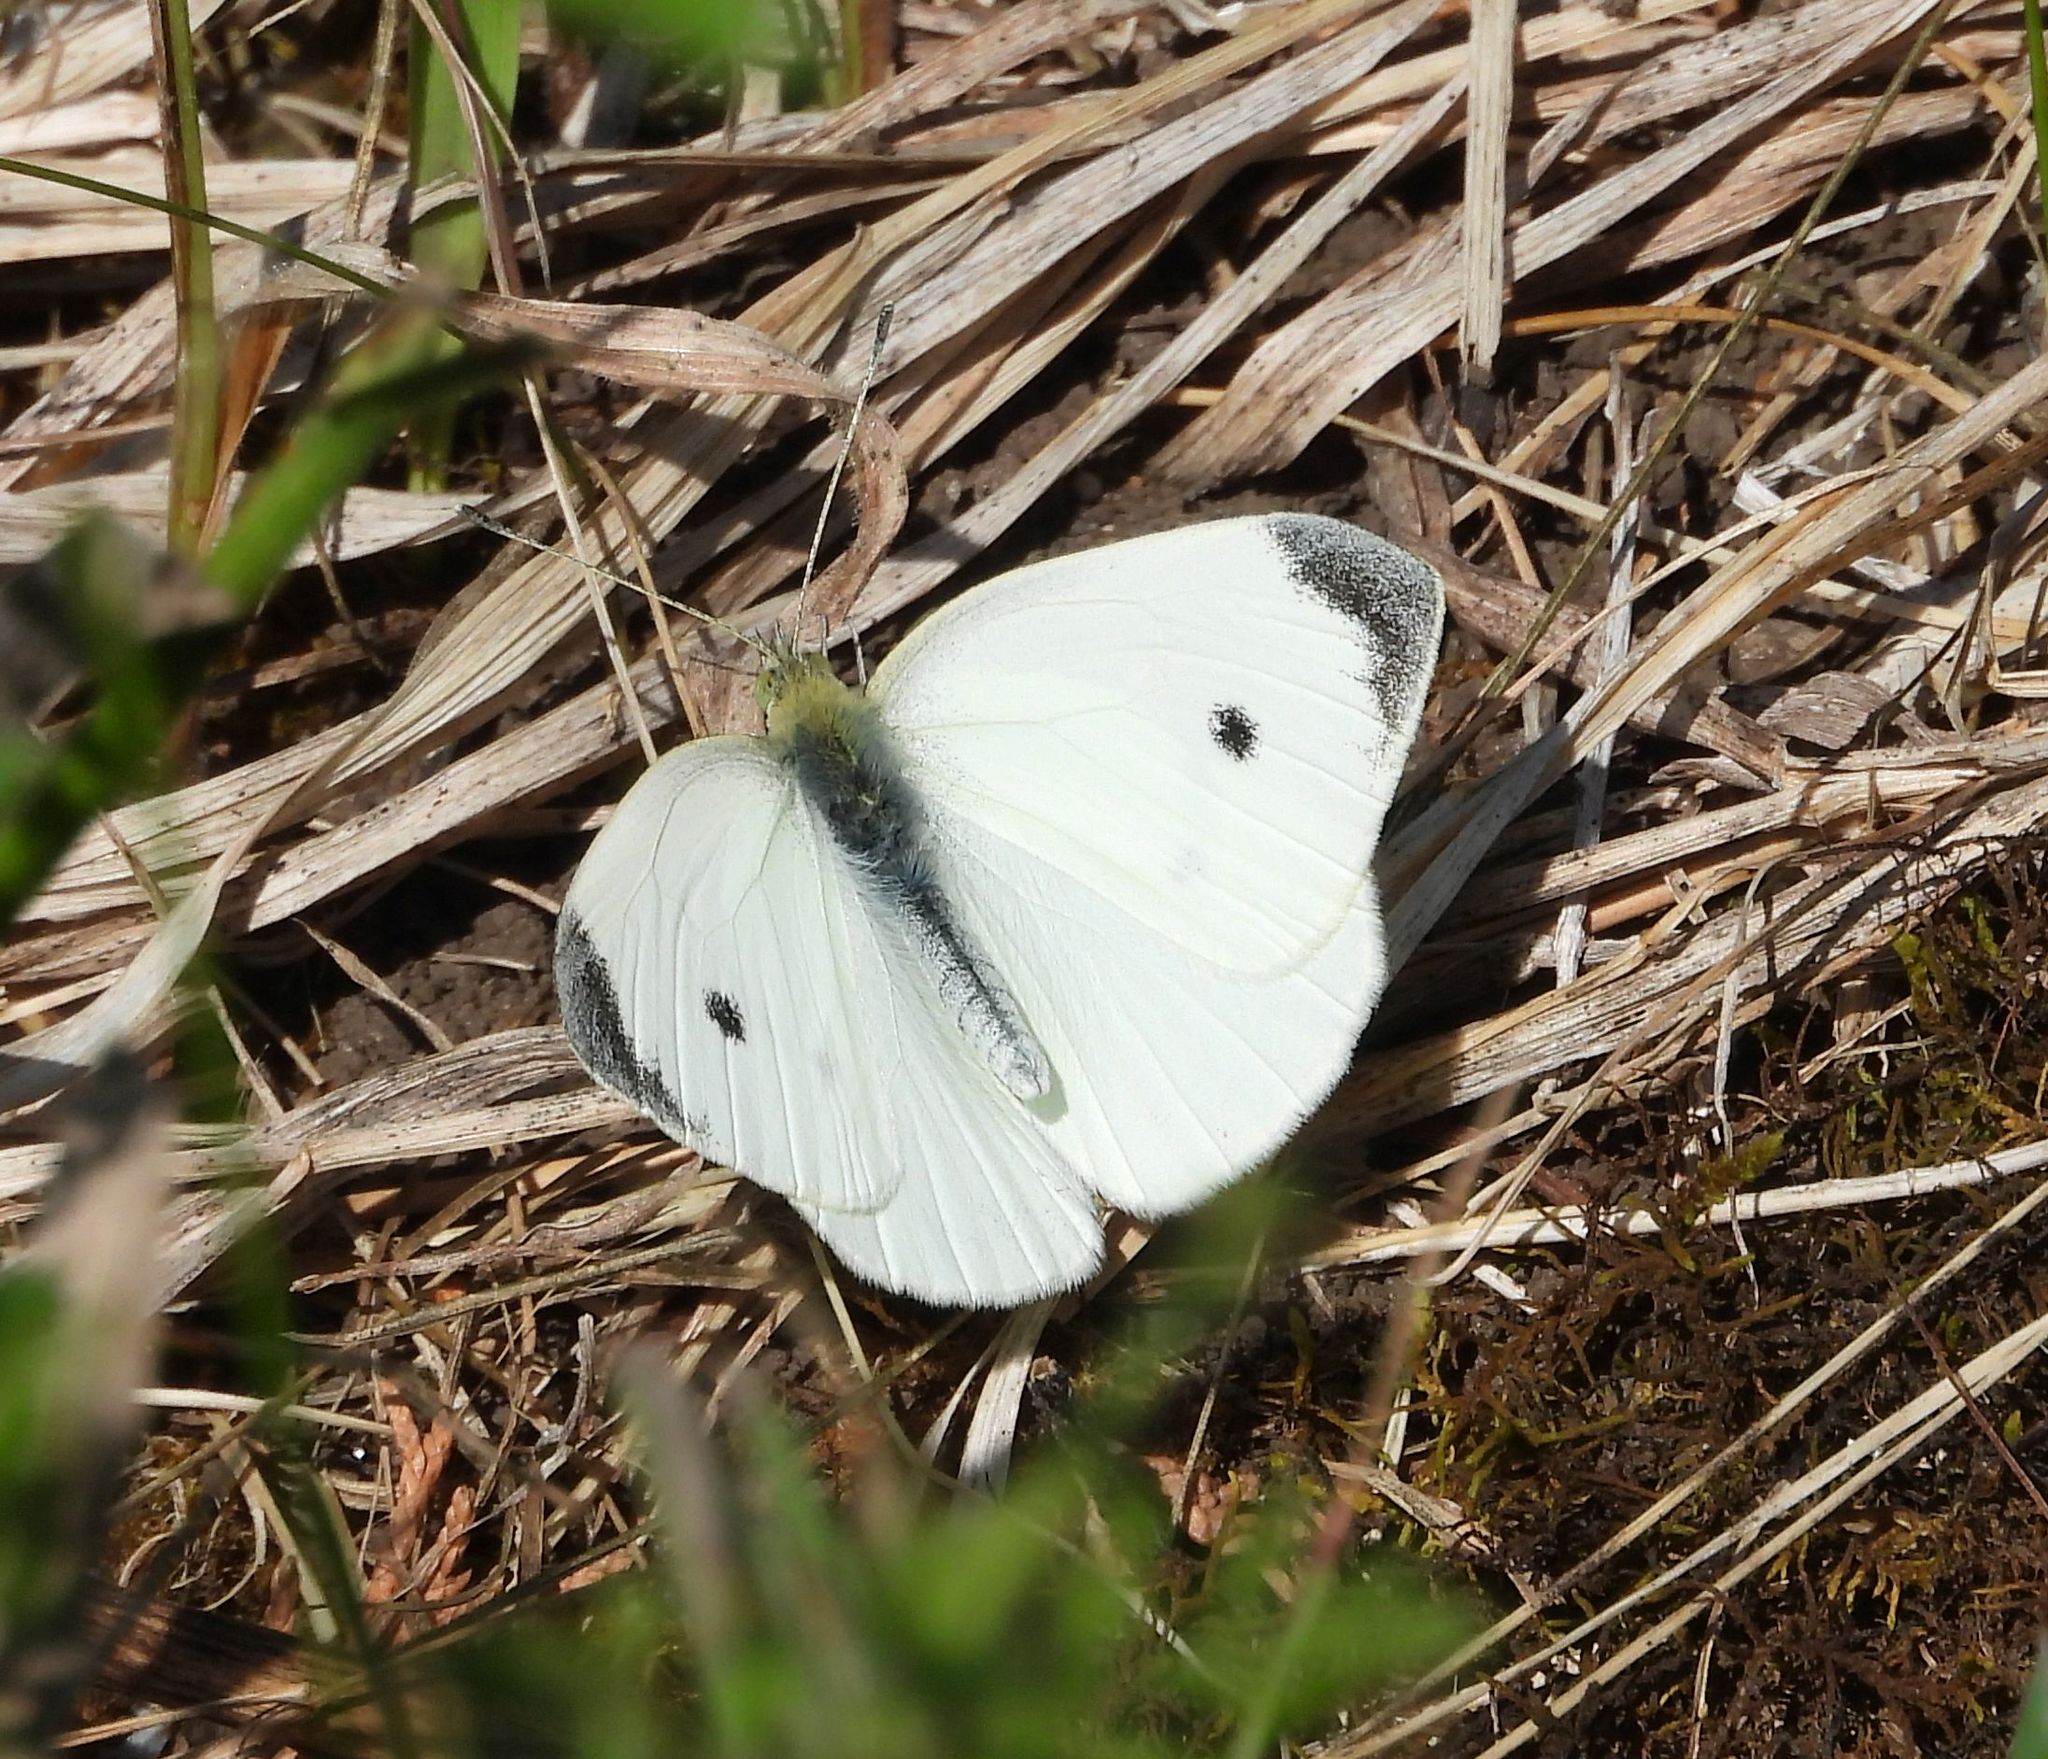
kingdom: Animalia
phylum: Arthropoda
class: Insecta
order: Lepidoptera
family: Pieridae
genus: Pieris
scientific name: Pieris rapae
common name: Small white
